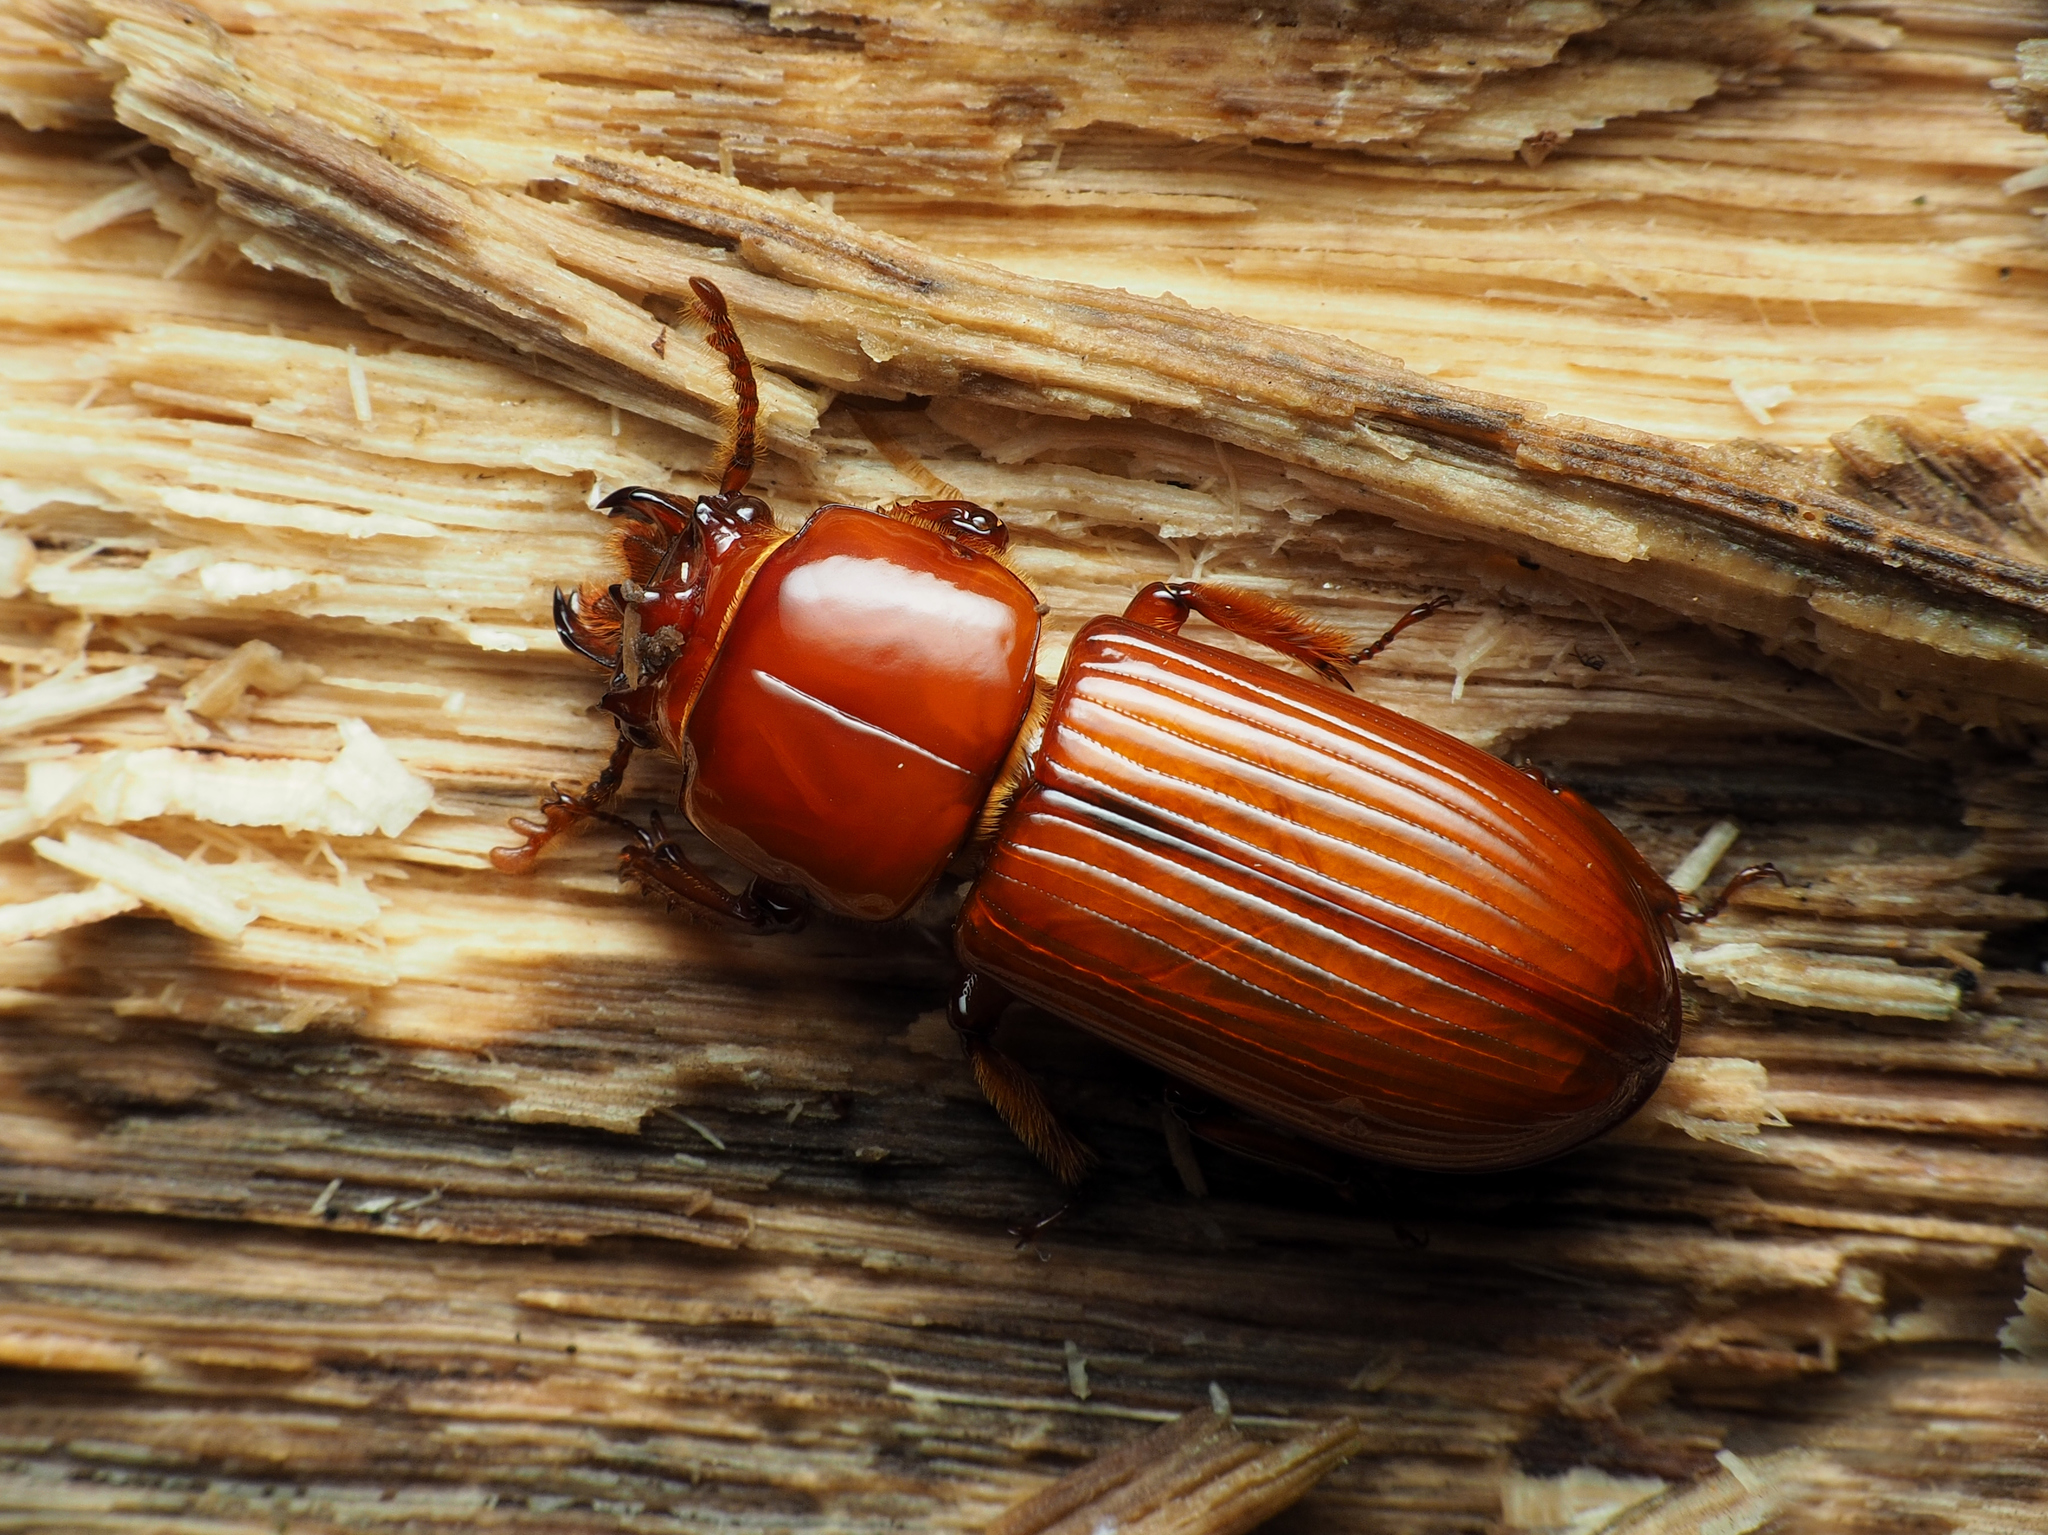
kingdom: Animalia
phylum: Arthropoda
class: Insecta
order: Coleoptera
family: Passalidae
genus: Odontotaenius
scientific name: Odontotaenius disjunctus
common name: Patent leather beetle
